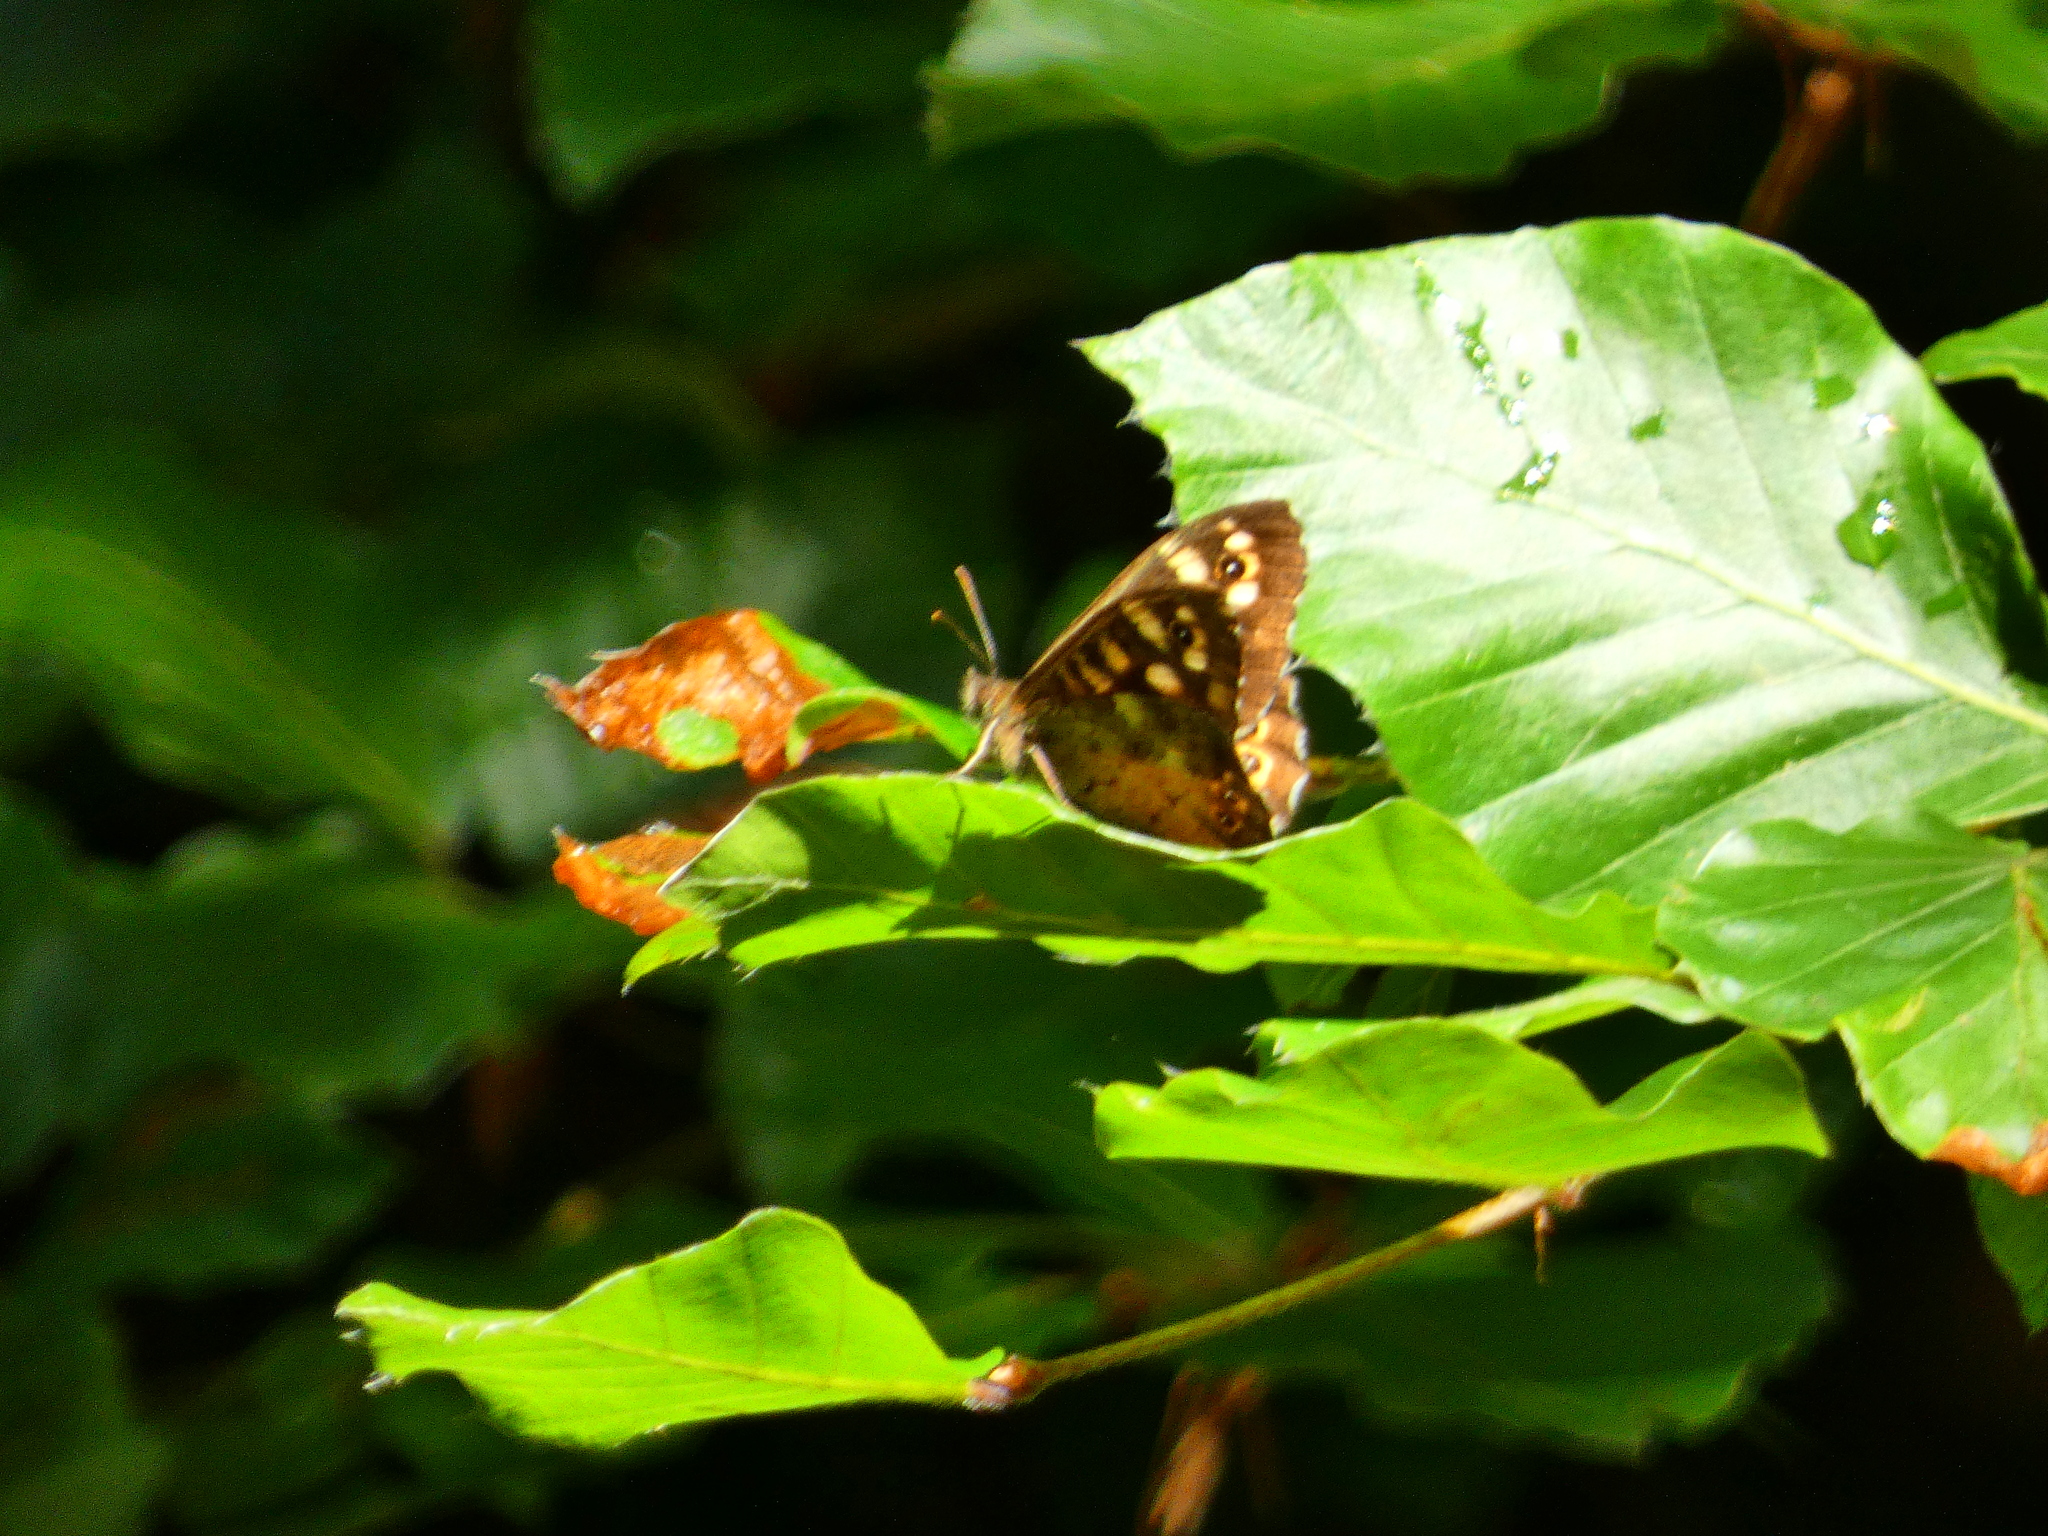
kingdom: Animalia
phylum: Arthropoda
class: Insecta
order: Lepidoptera
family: Nymphalidae
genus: Pararge
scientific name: Pararge aegeria
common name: Speckled wood
